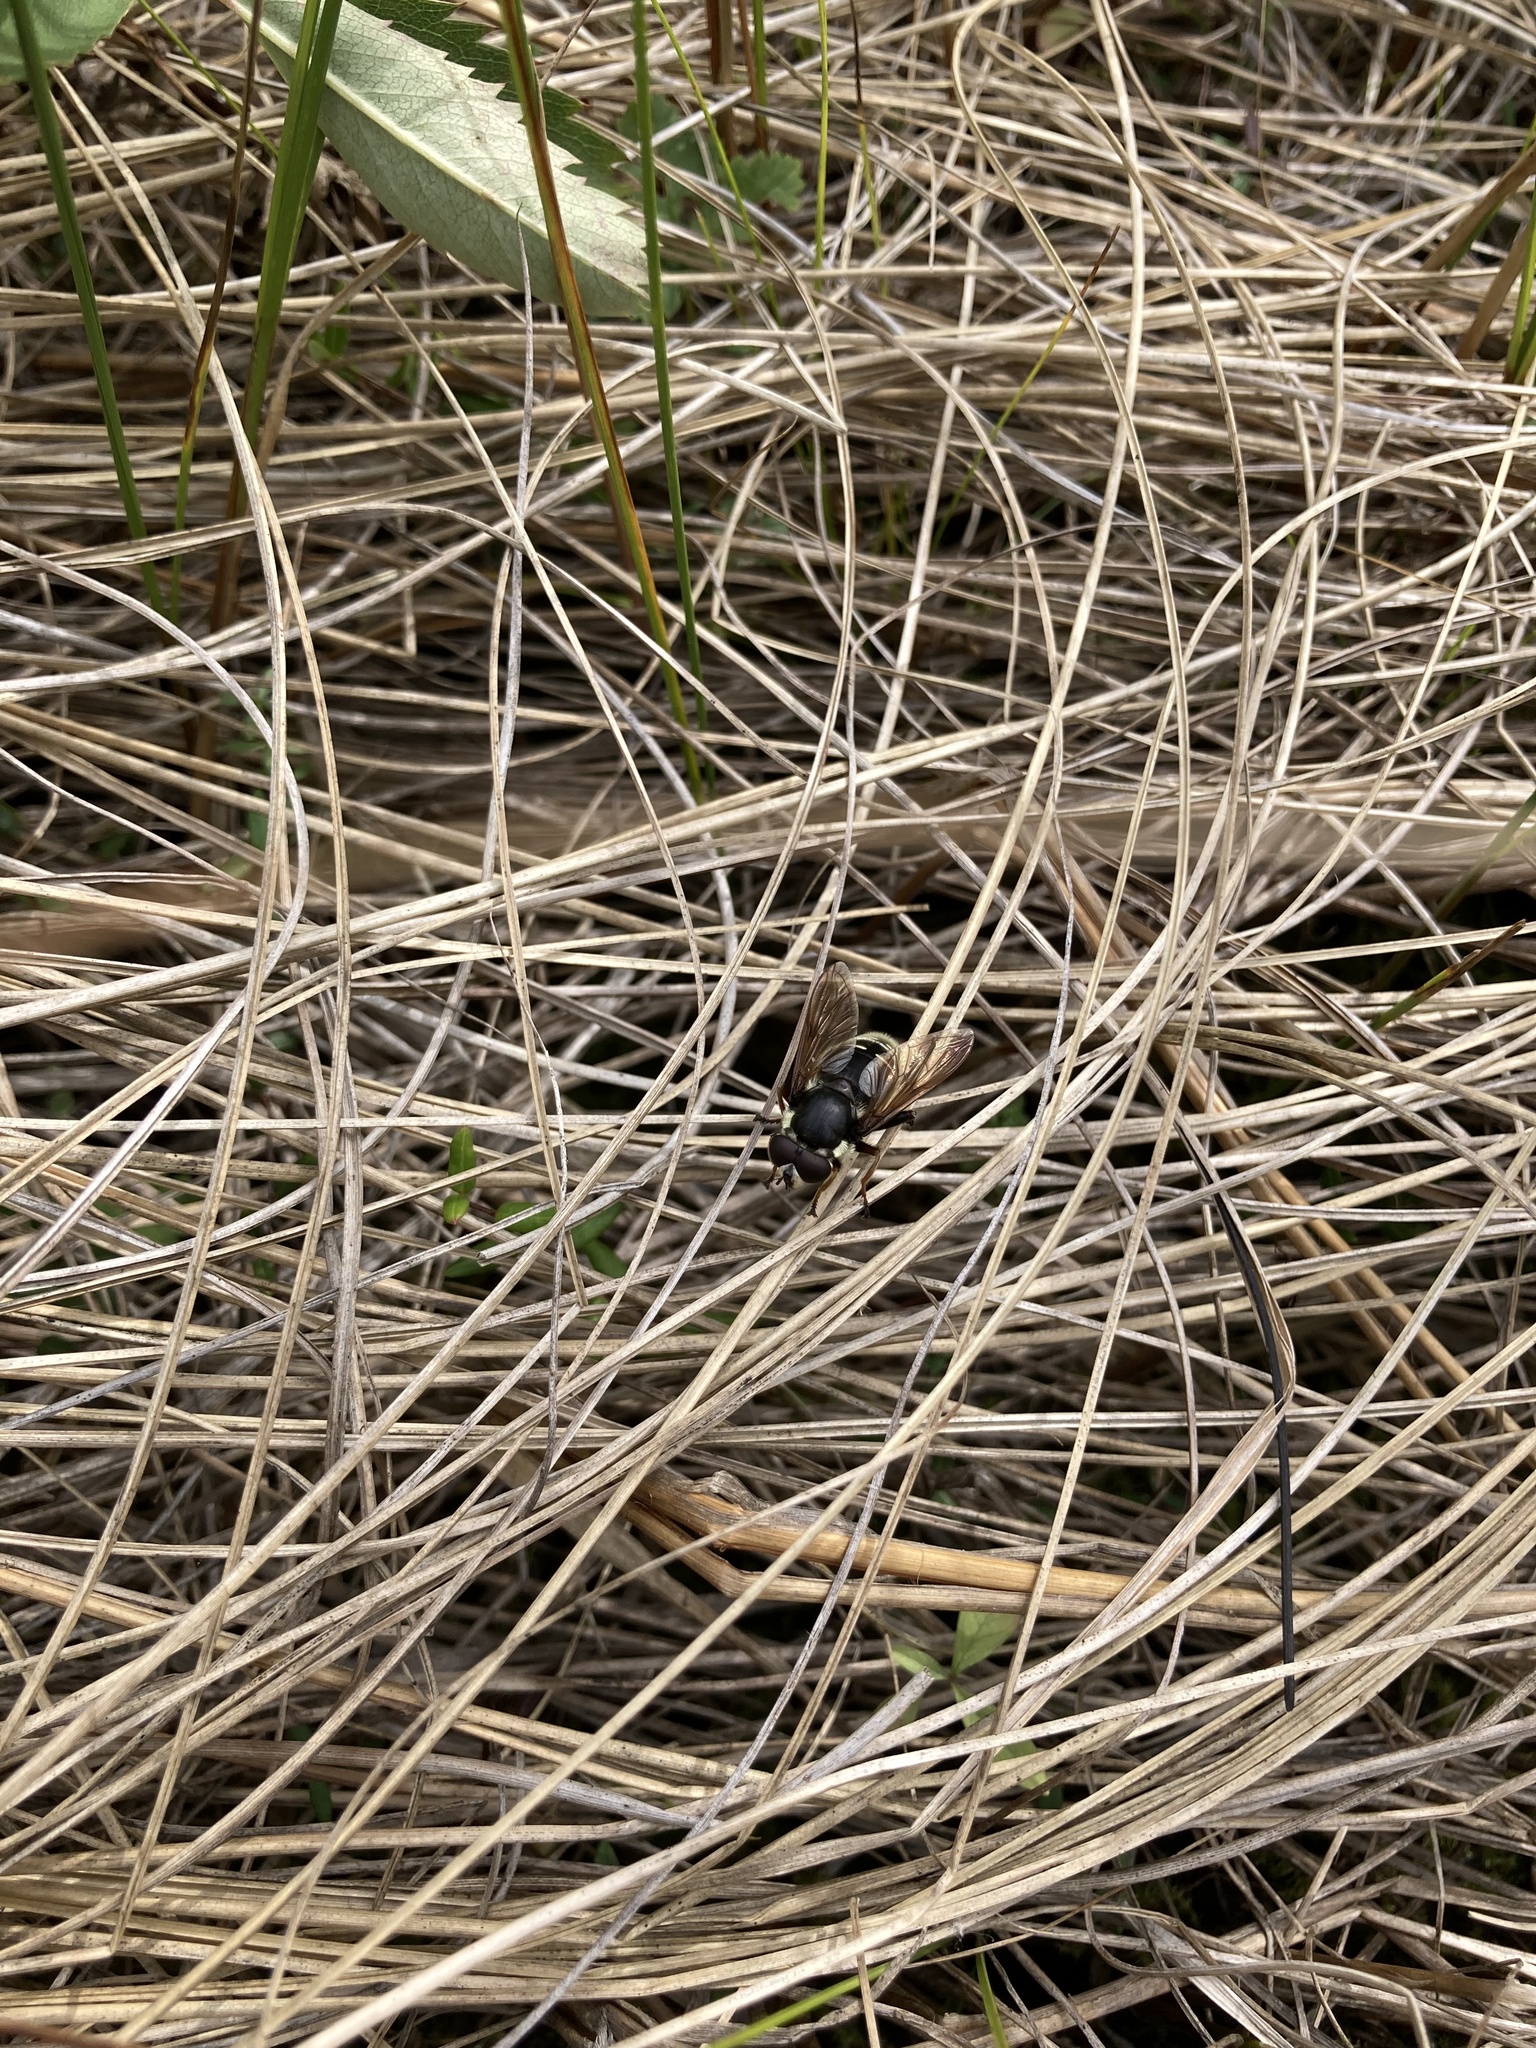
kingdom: Animalia
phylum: Arthropoda
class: Insecta
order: Diptera
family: Syrphidae
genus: Sericomyia
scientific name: Sericomyia militaris
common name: Narrow-banded pond fly
